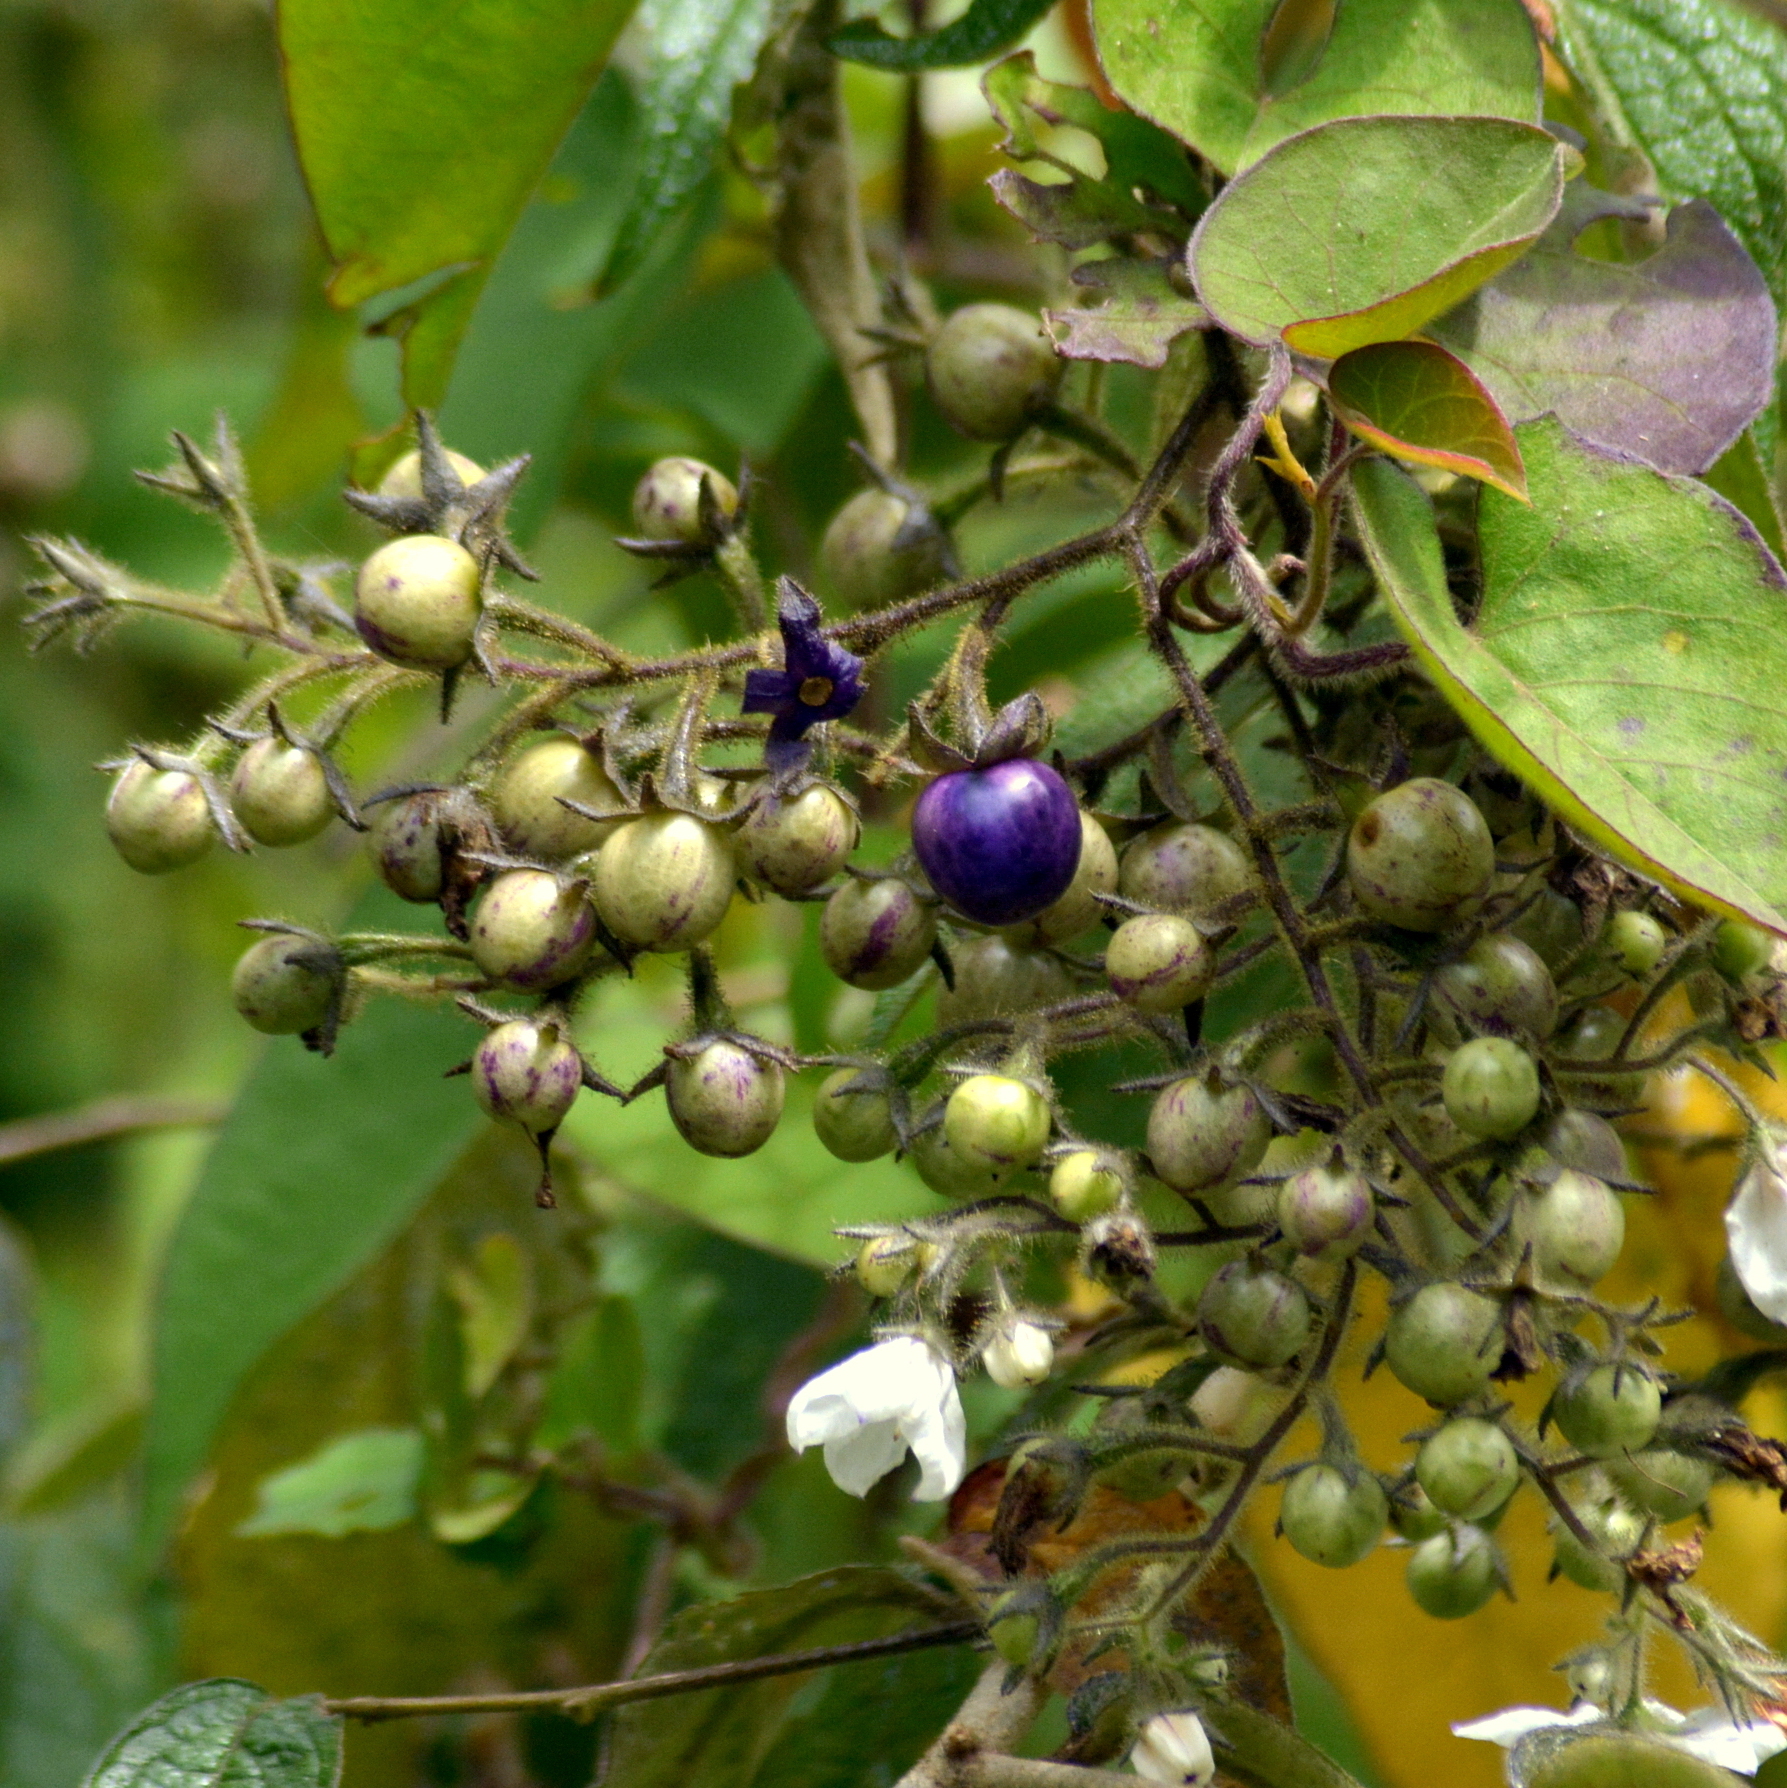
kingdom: Plantae
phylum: Tracheophyta
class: Magnoliopsida
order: Solanales
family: Solanaceae
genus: Solanum
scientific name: Solanum concinnum
